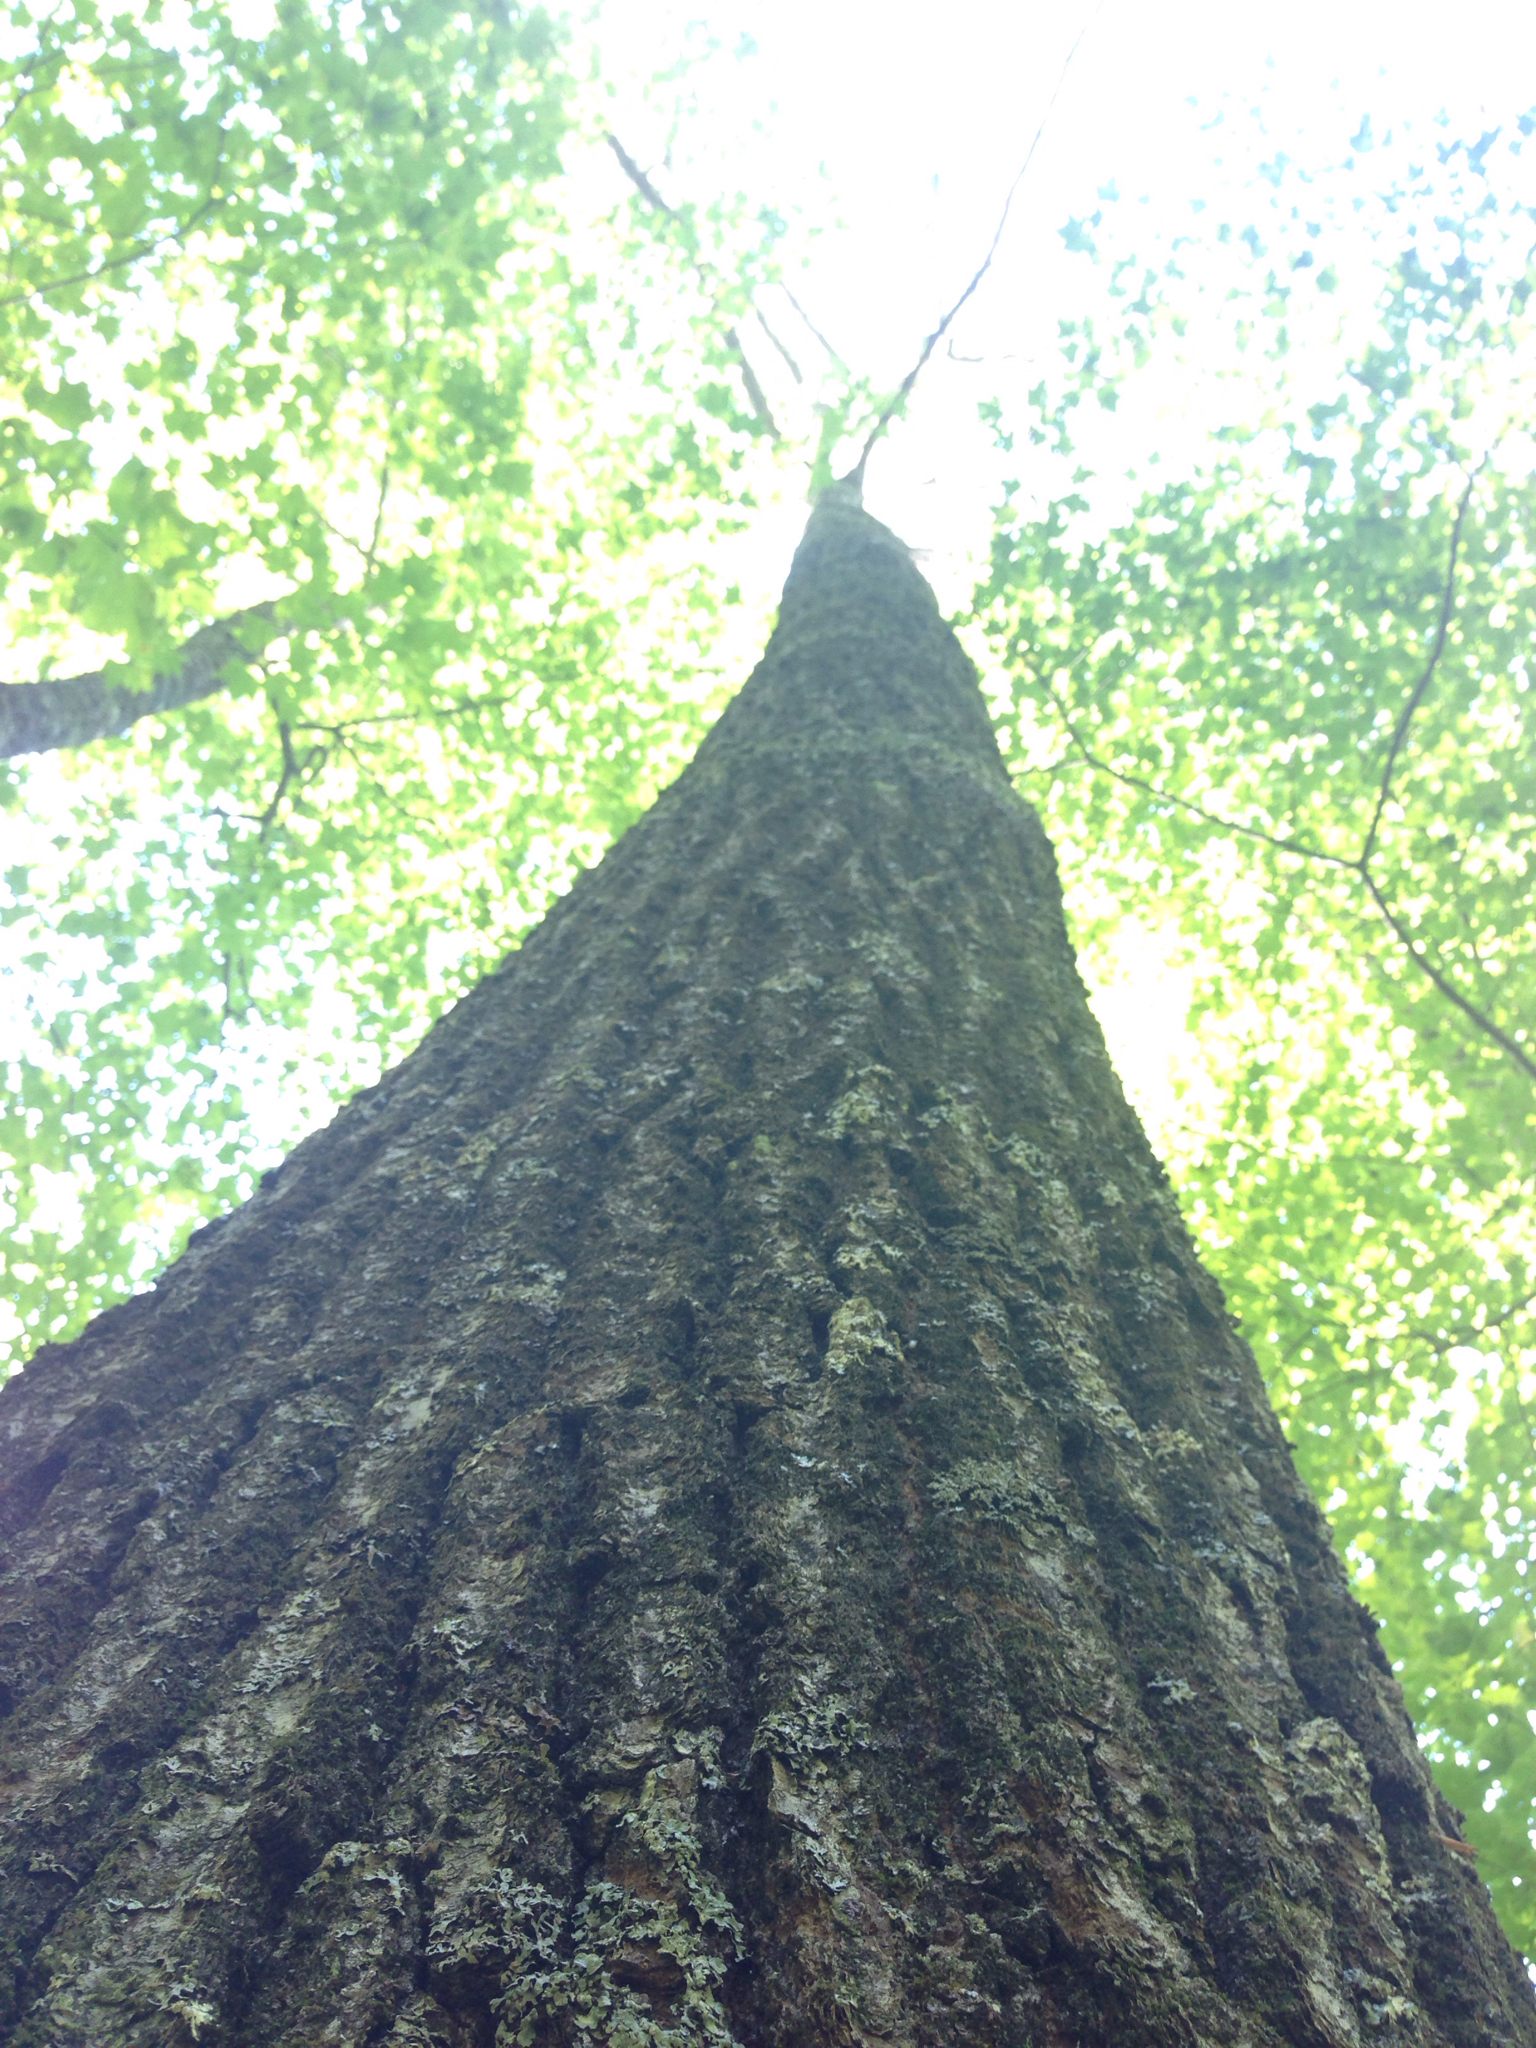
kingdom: Plantae
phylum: Tracheophyta
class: Magnoliopsida
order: Fagales
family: Fagaceae
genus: Quercus
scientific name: Quercus rubra
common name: Red oak
